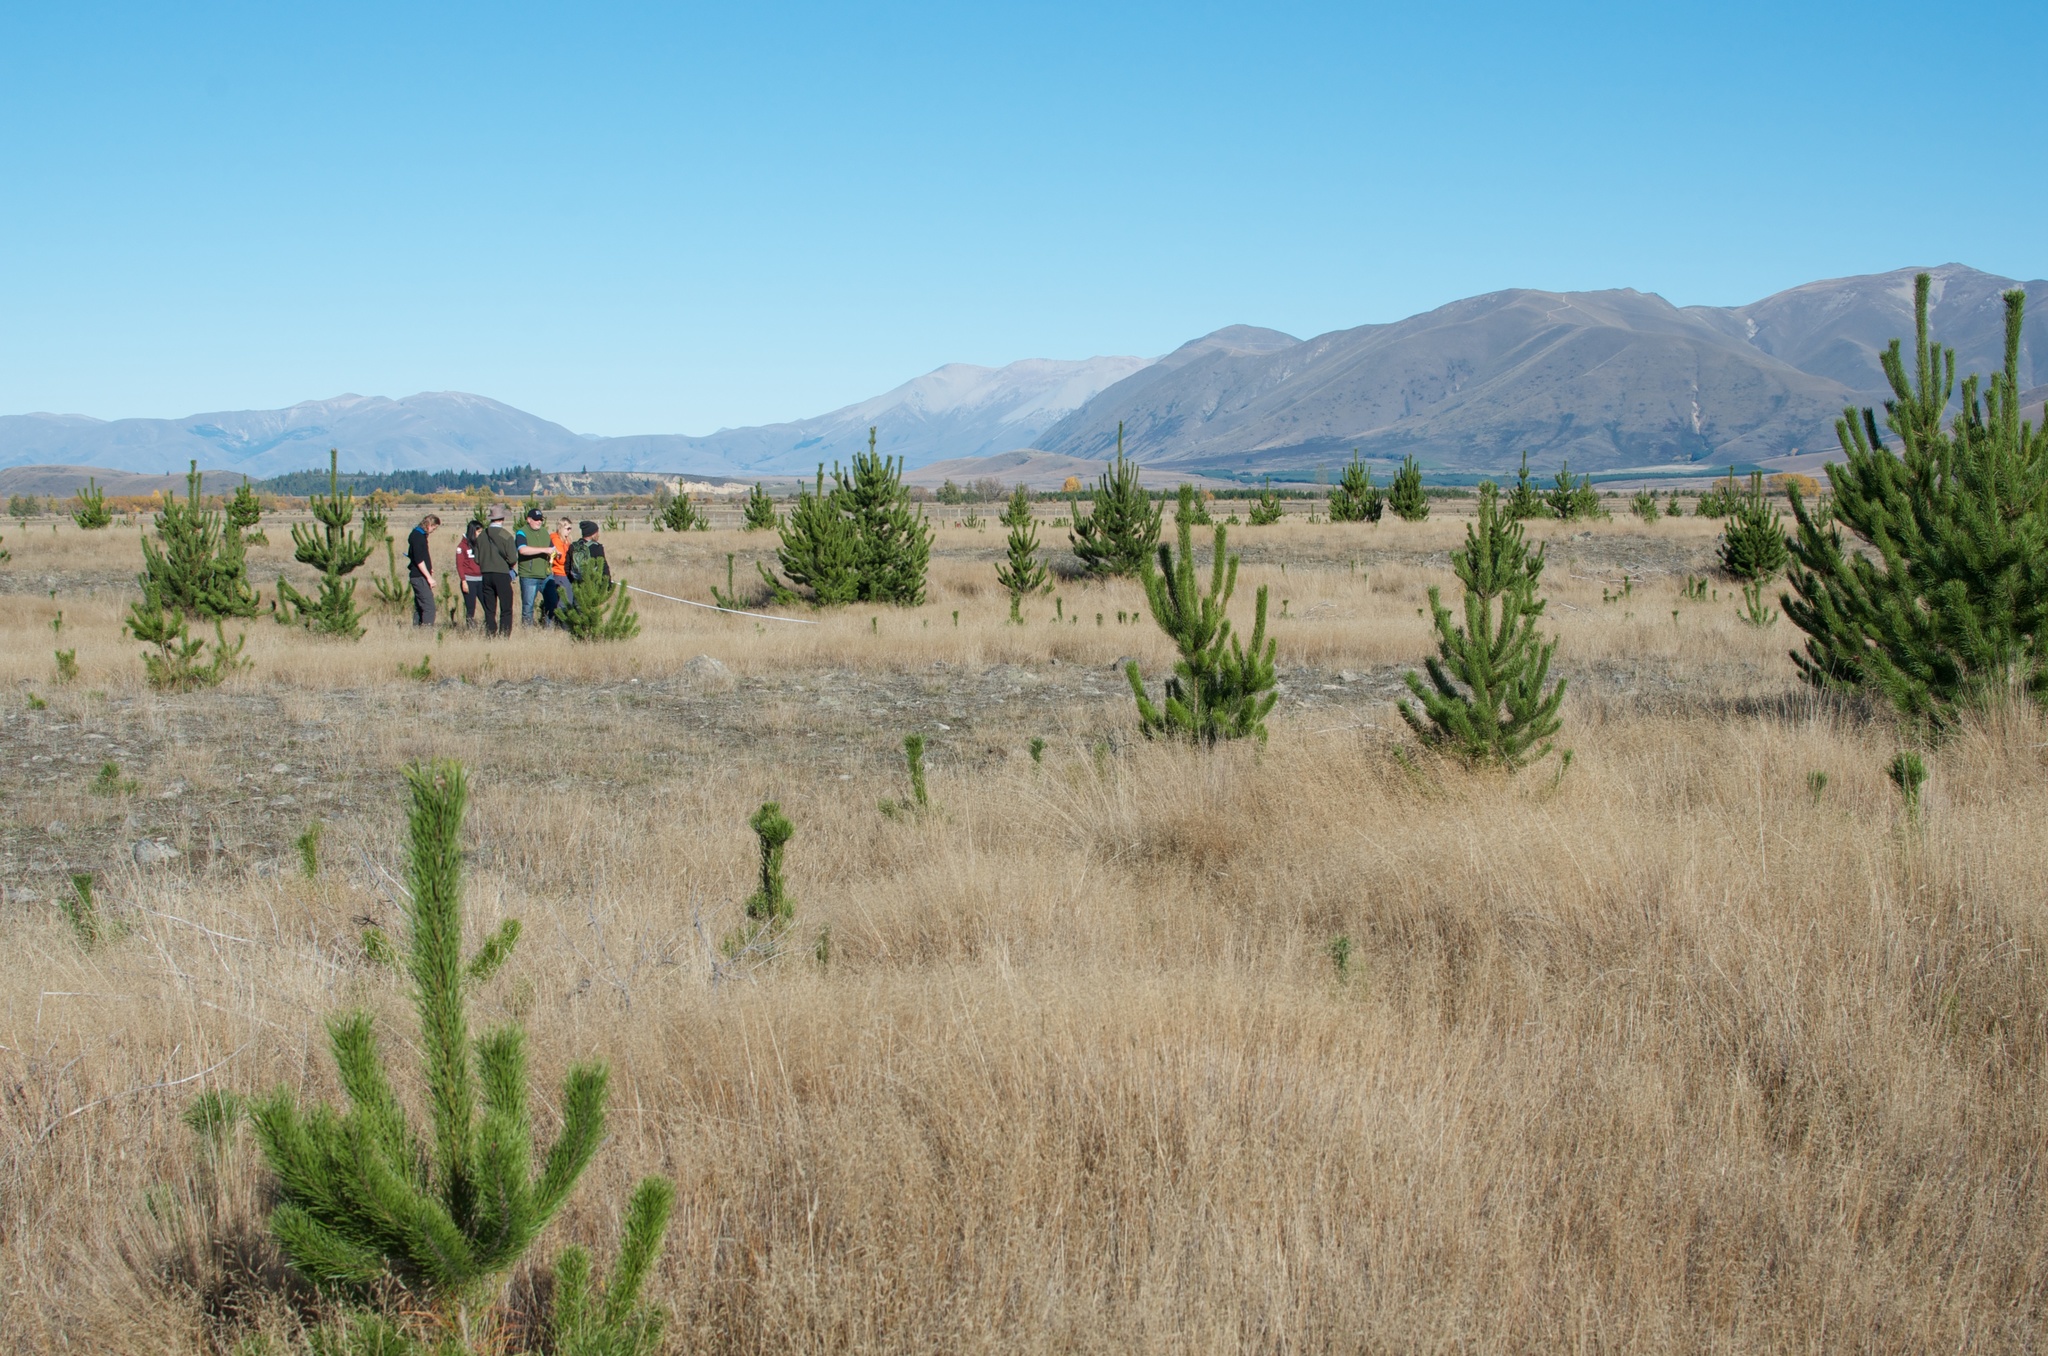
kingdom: Plantae
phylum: Tracheophyta
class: Pinopsida
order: Pinales
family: Pinaceae
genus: Pinus
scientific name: Pinus contorta
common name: Lodgepole pine
